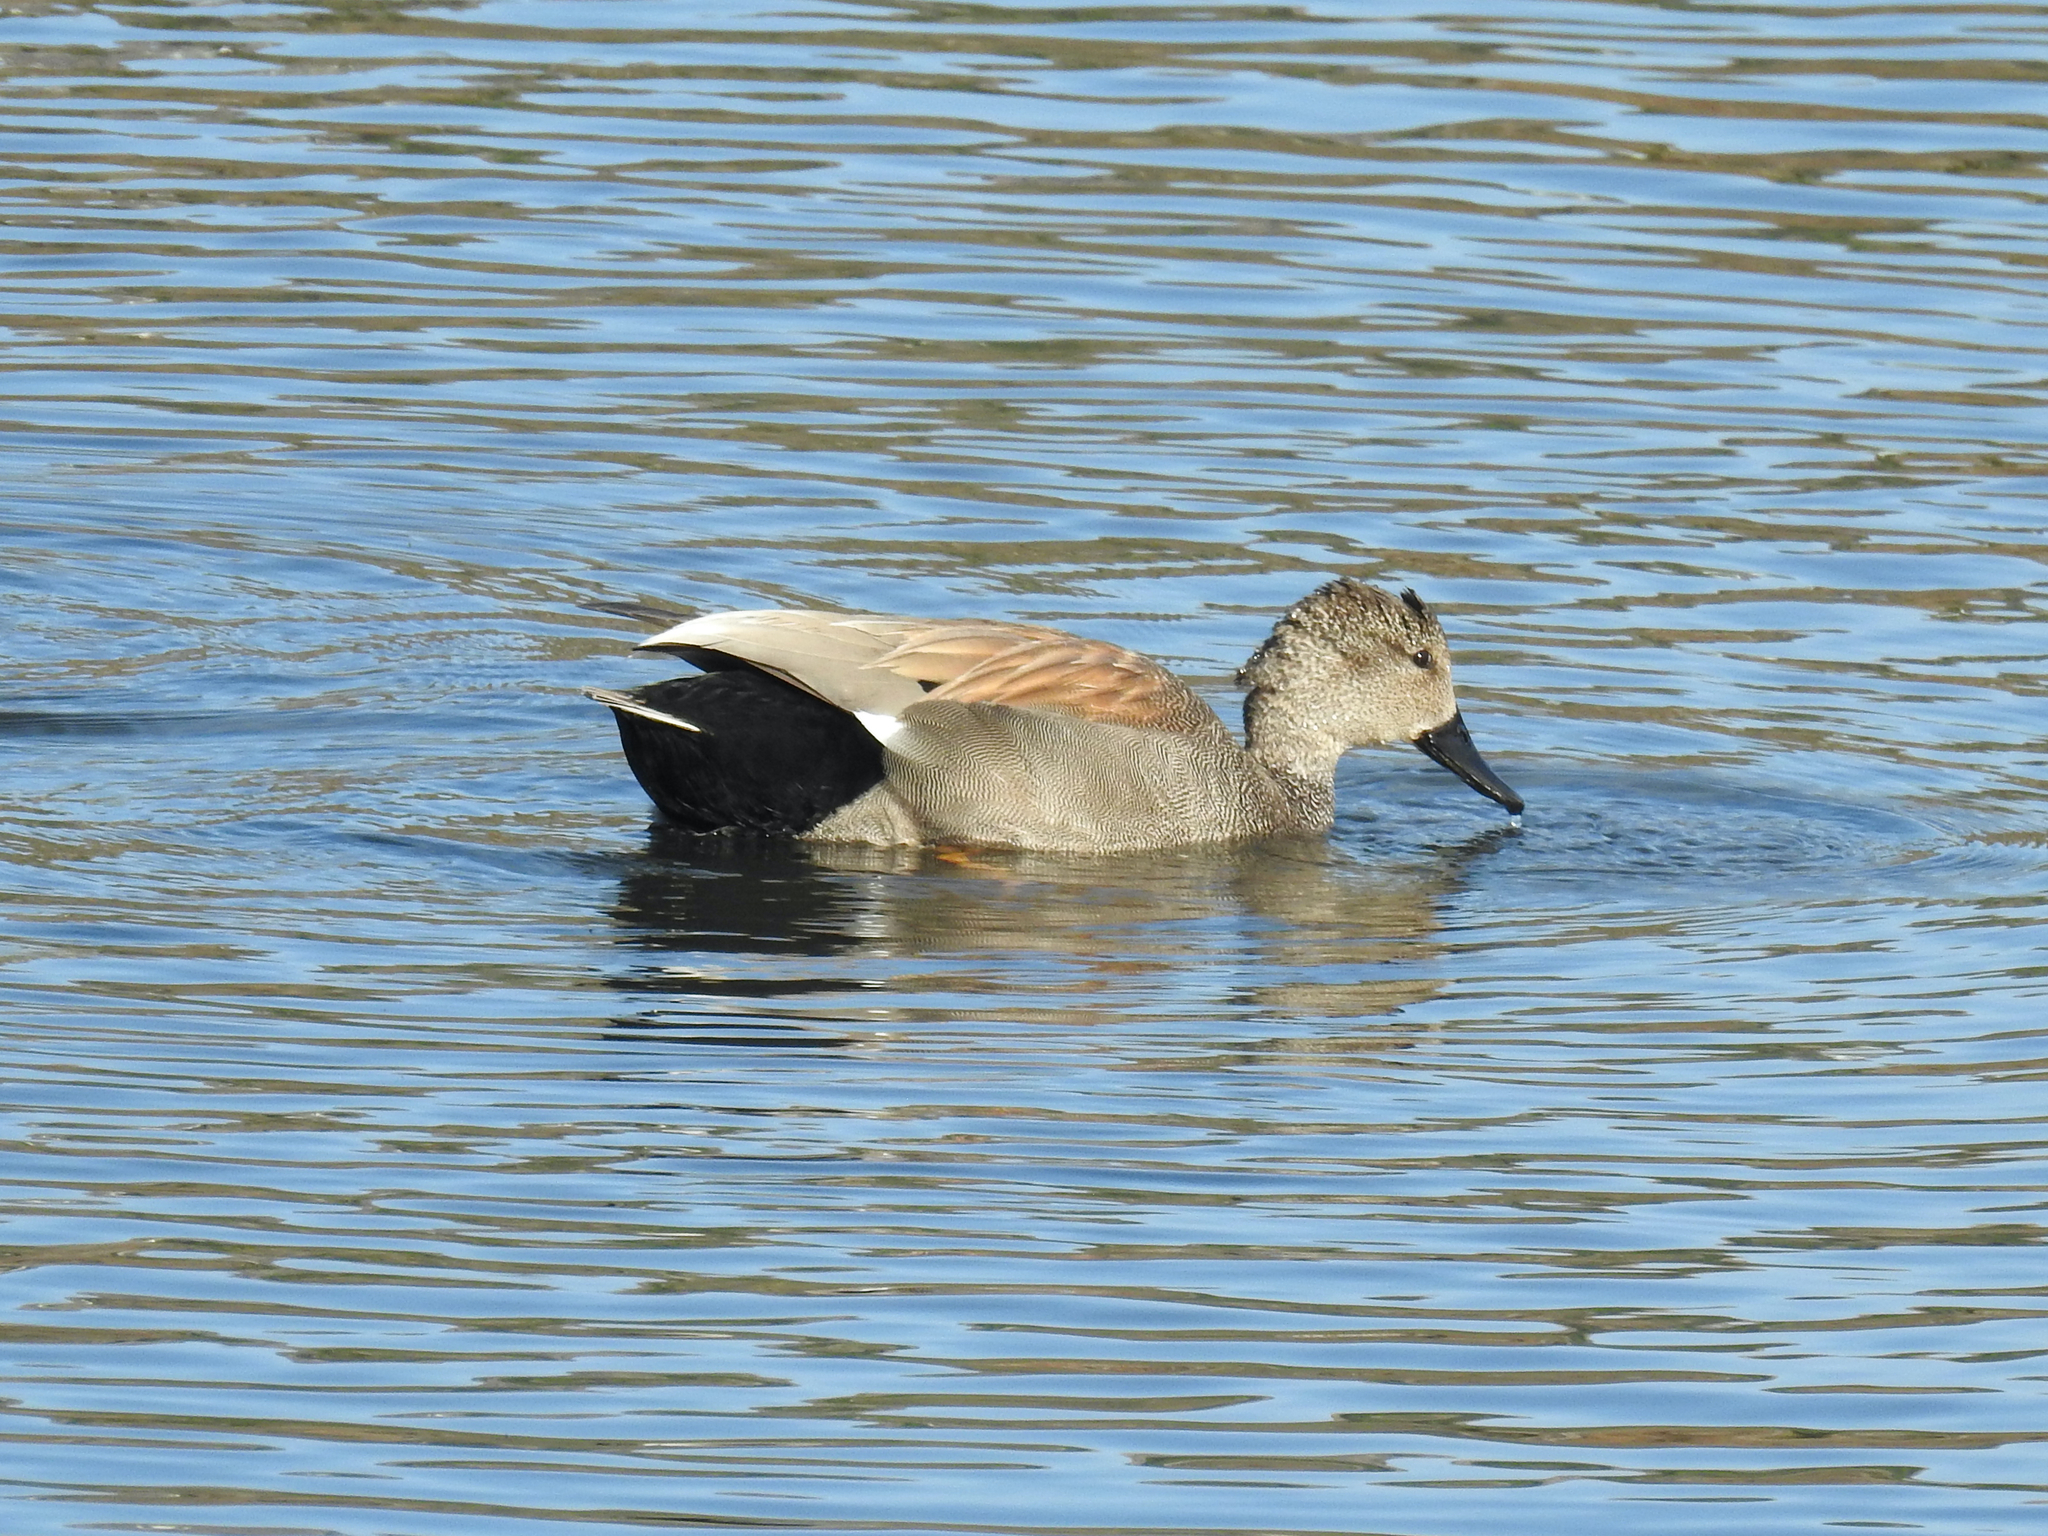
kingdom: Animalia
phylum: Chordata
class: Aves
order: Anseriformes
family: Anatidae
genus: Mareca
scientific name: Mareca strepera
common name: Gadwall
